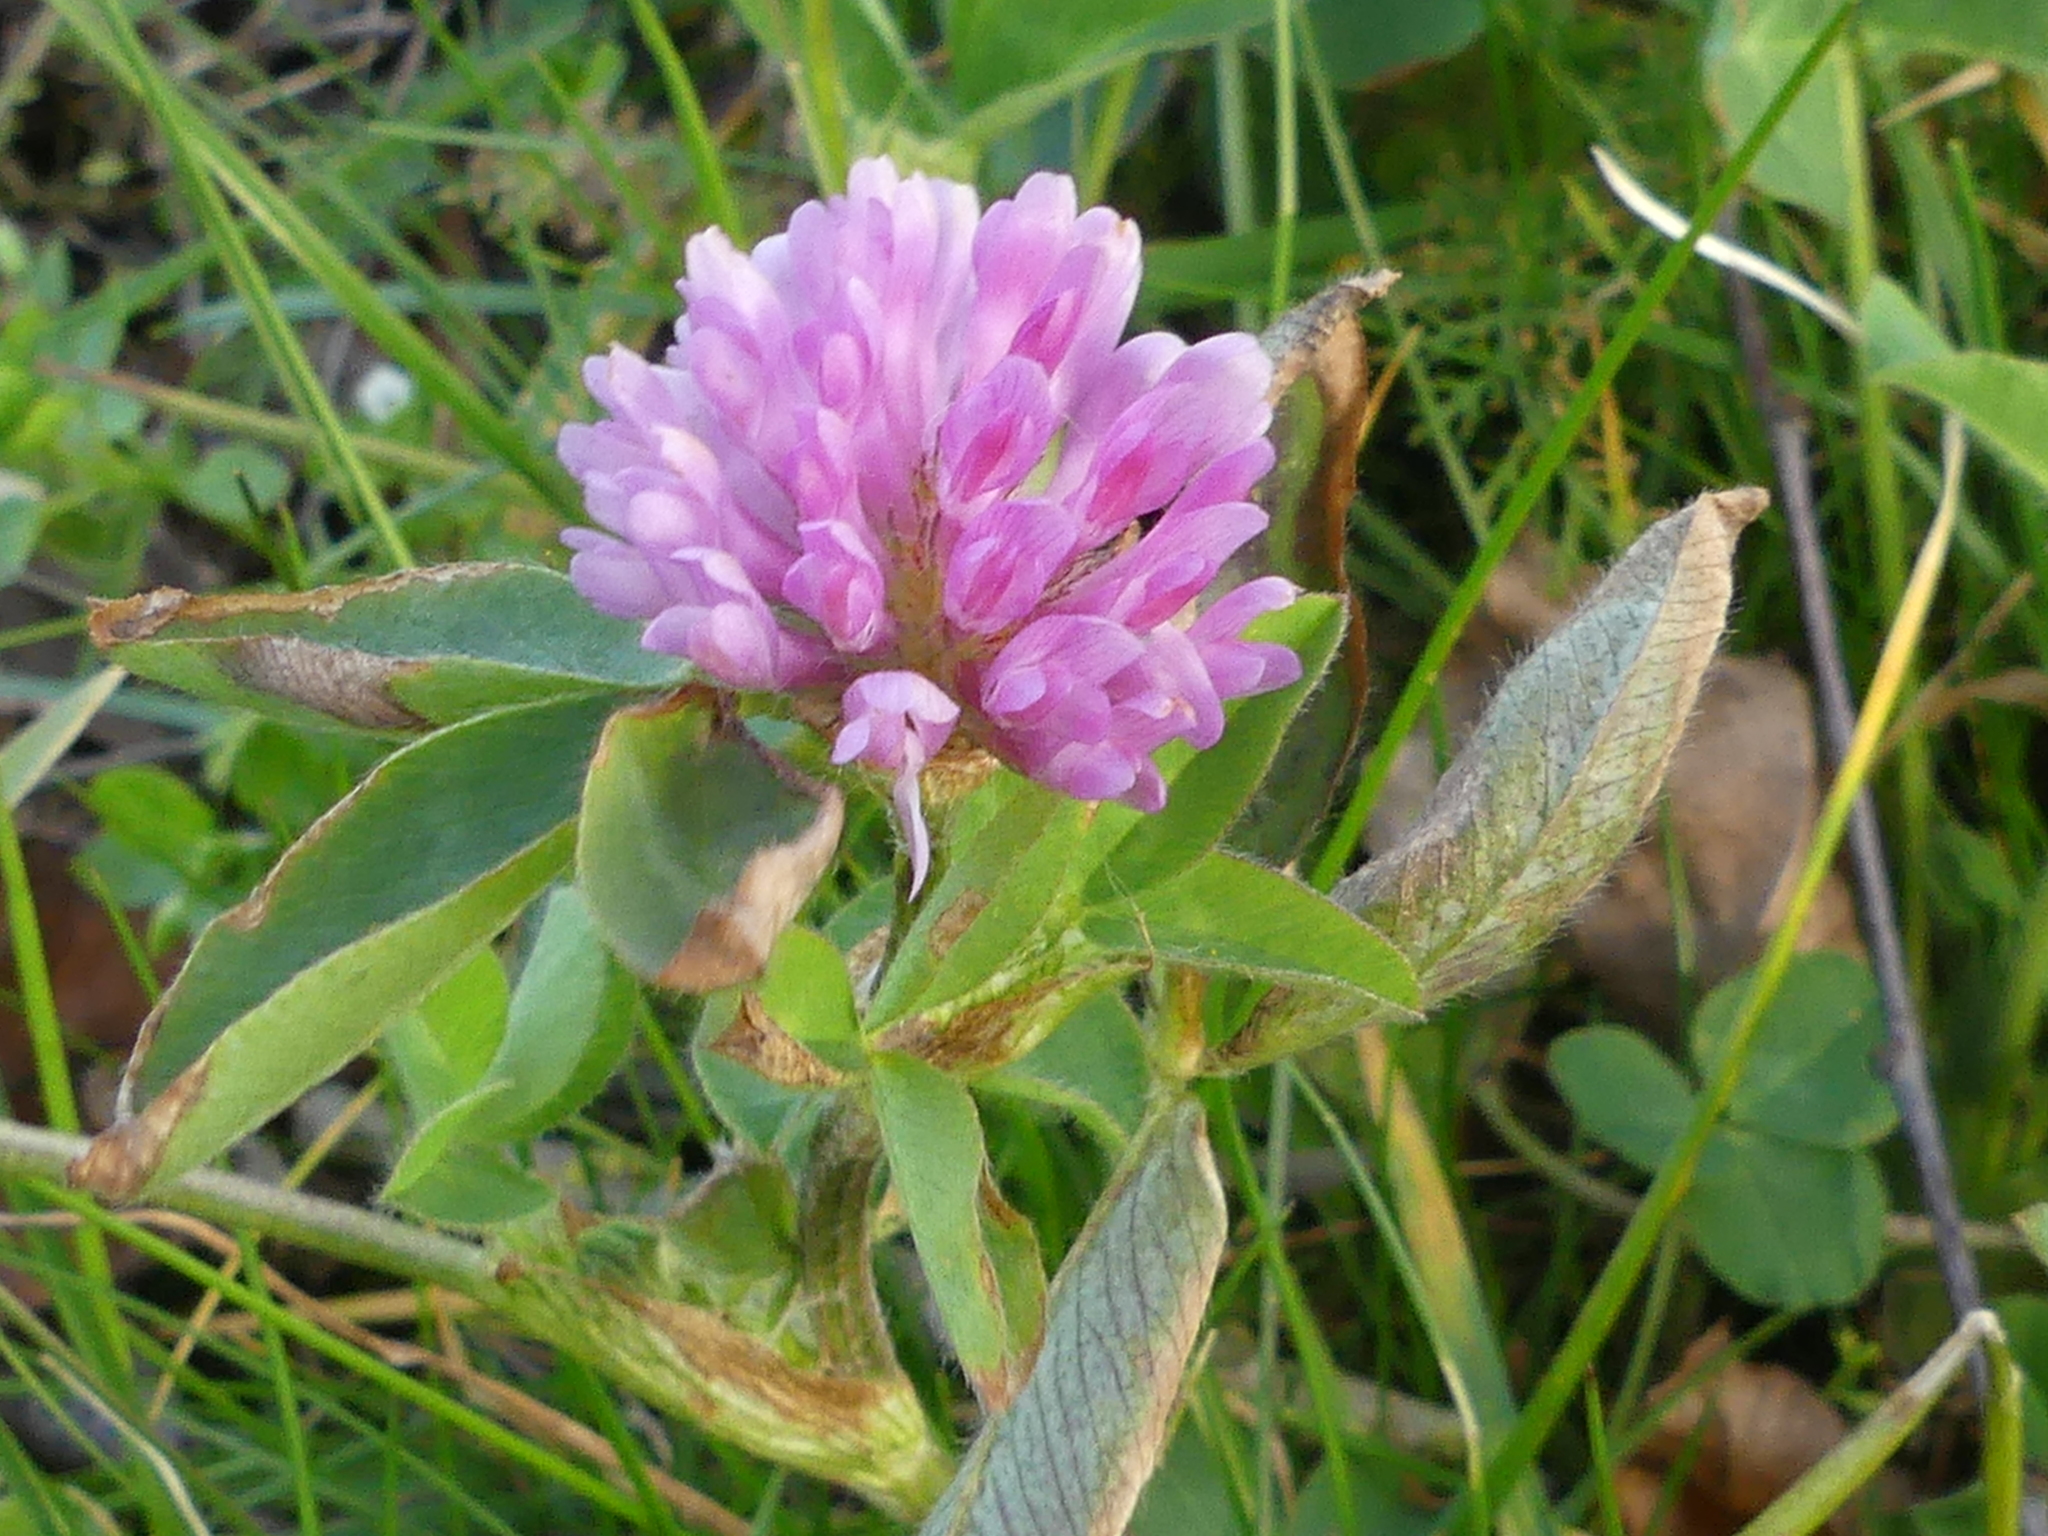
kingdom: Plantae
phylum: Tracheophyta
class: Magnoliopsida
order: Fabales
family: Fabaceae
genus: Trifolium
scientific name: Trifolium pratense
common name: Red clover
